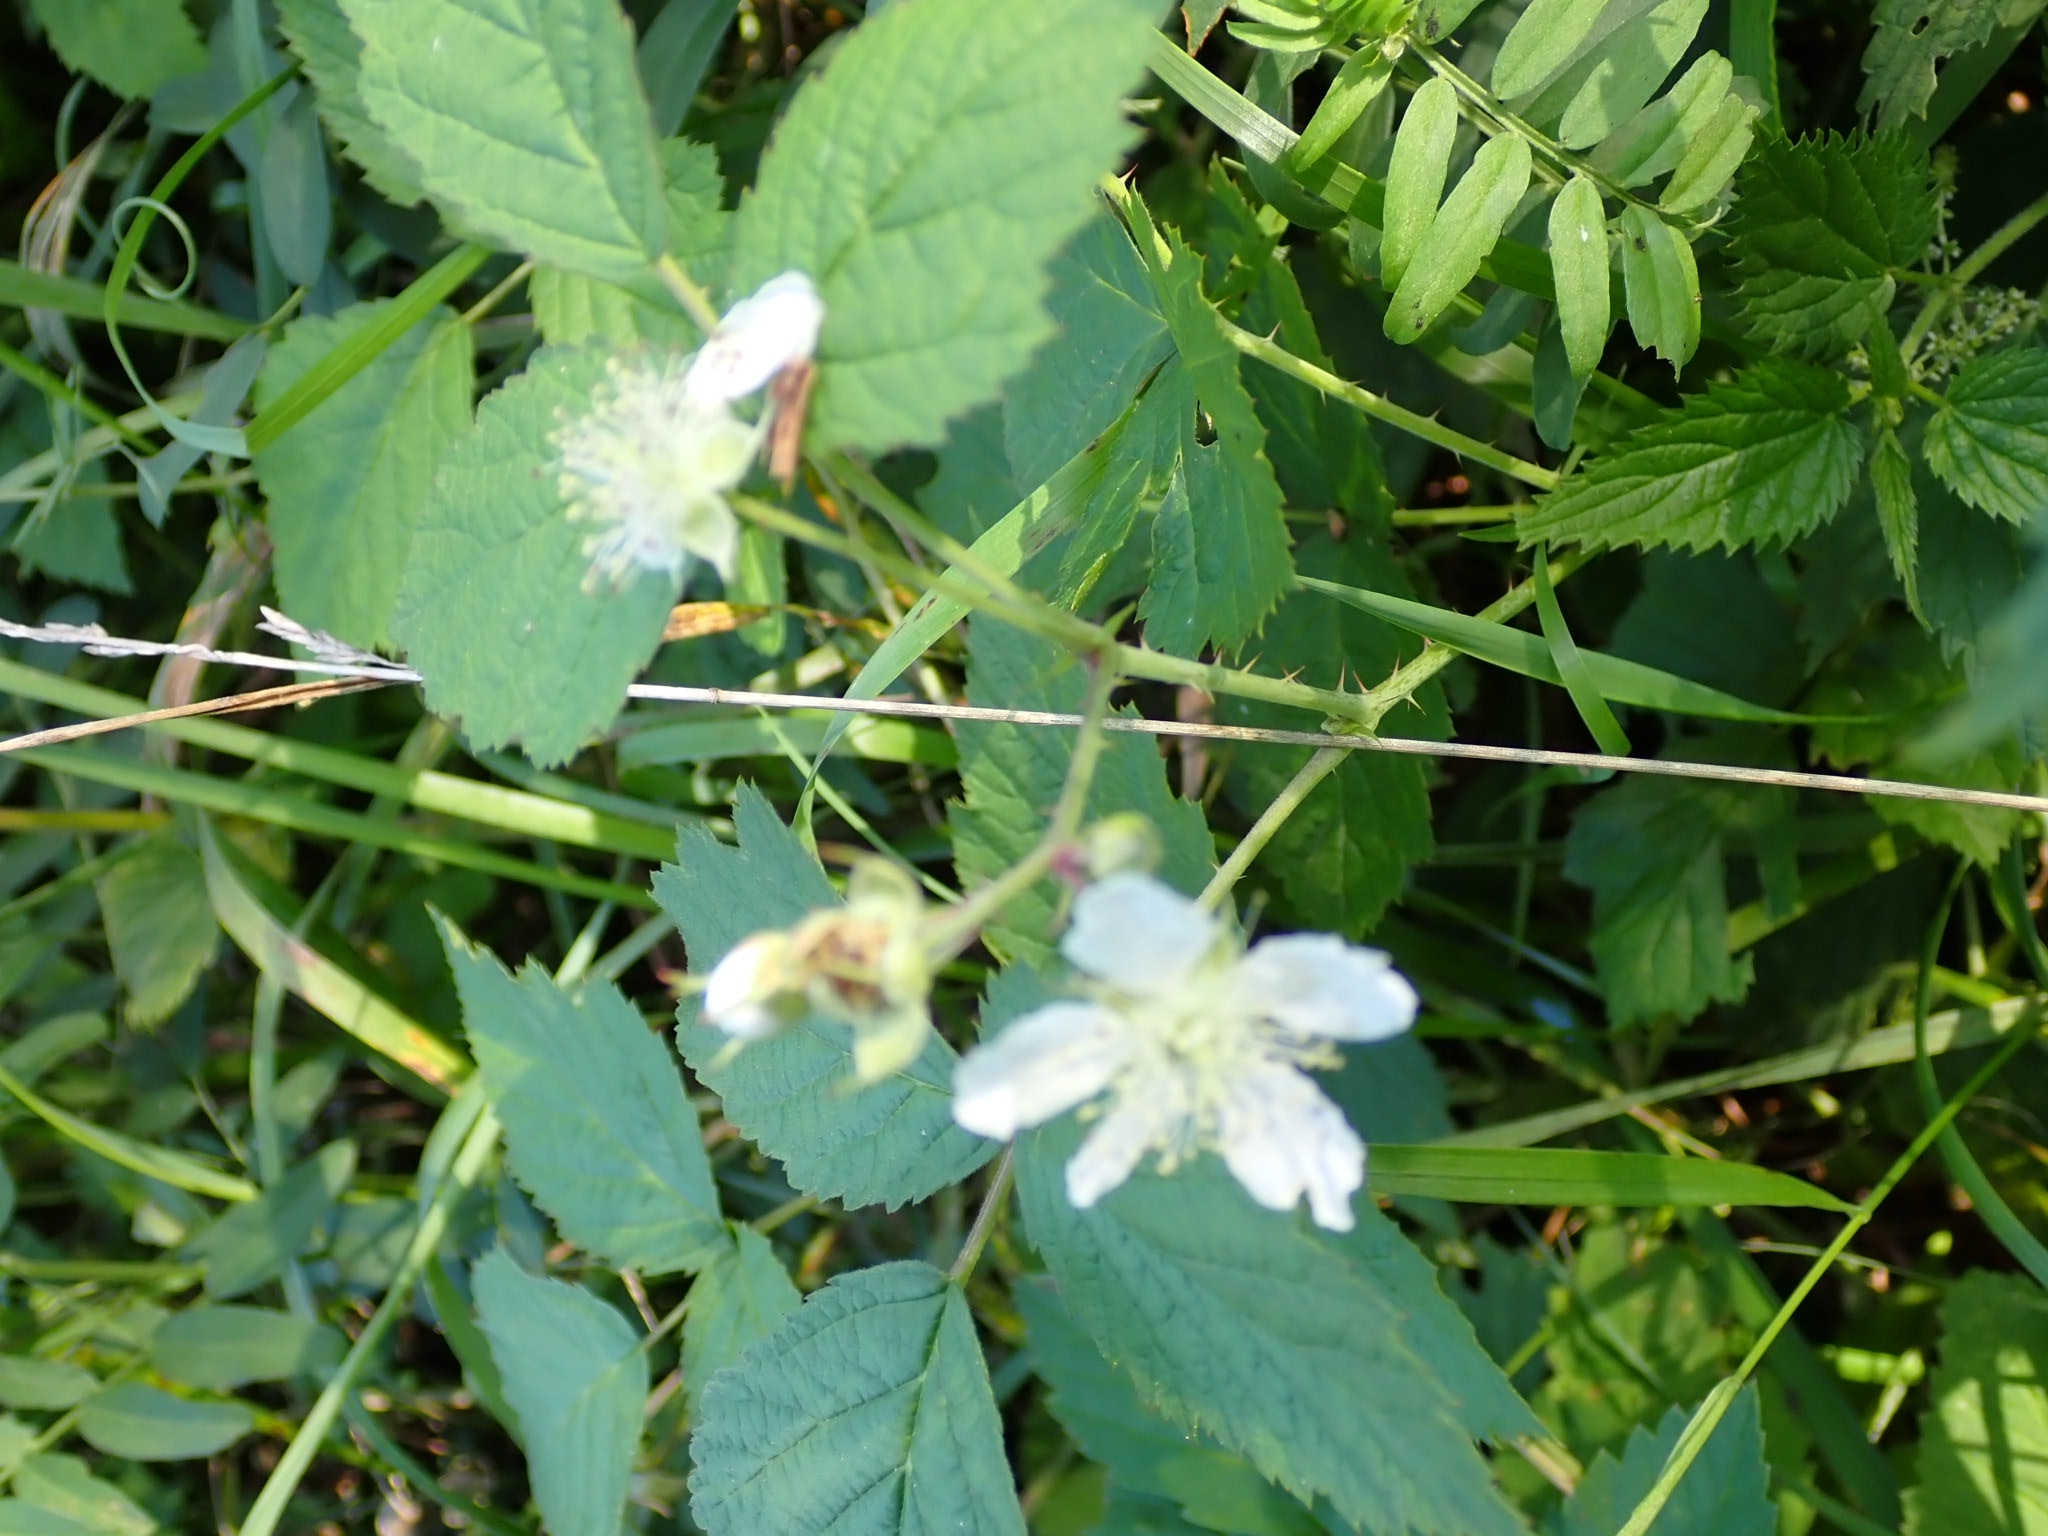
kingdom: Plantae
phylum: Tracheophyta
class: Magnoliopsida
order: Rosales
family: Rosaceae
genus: Rubus
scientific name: Rubus caesius
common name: Dewberry
